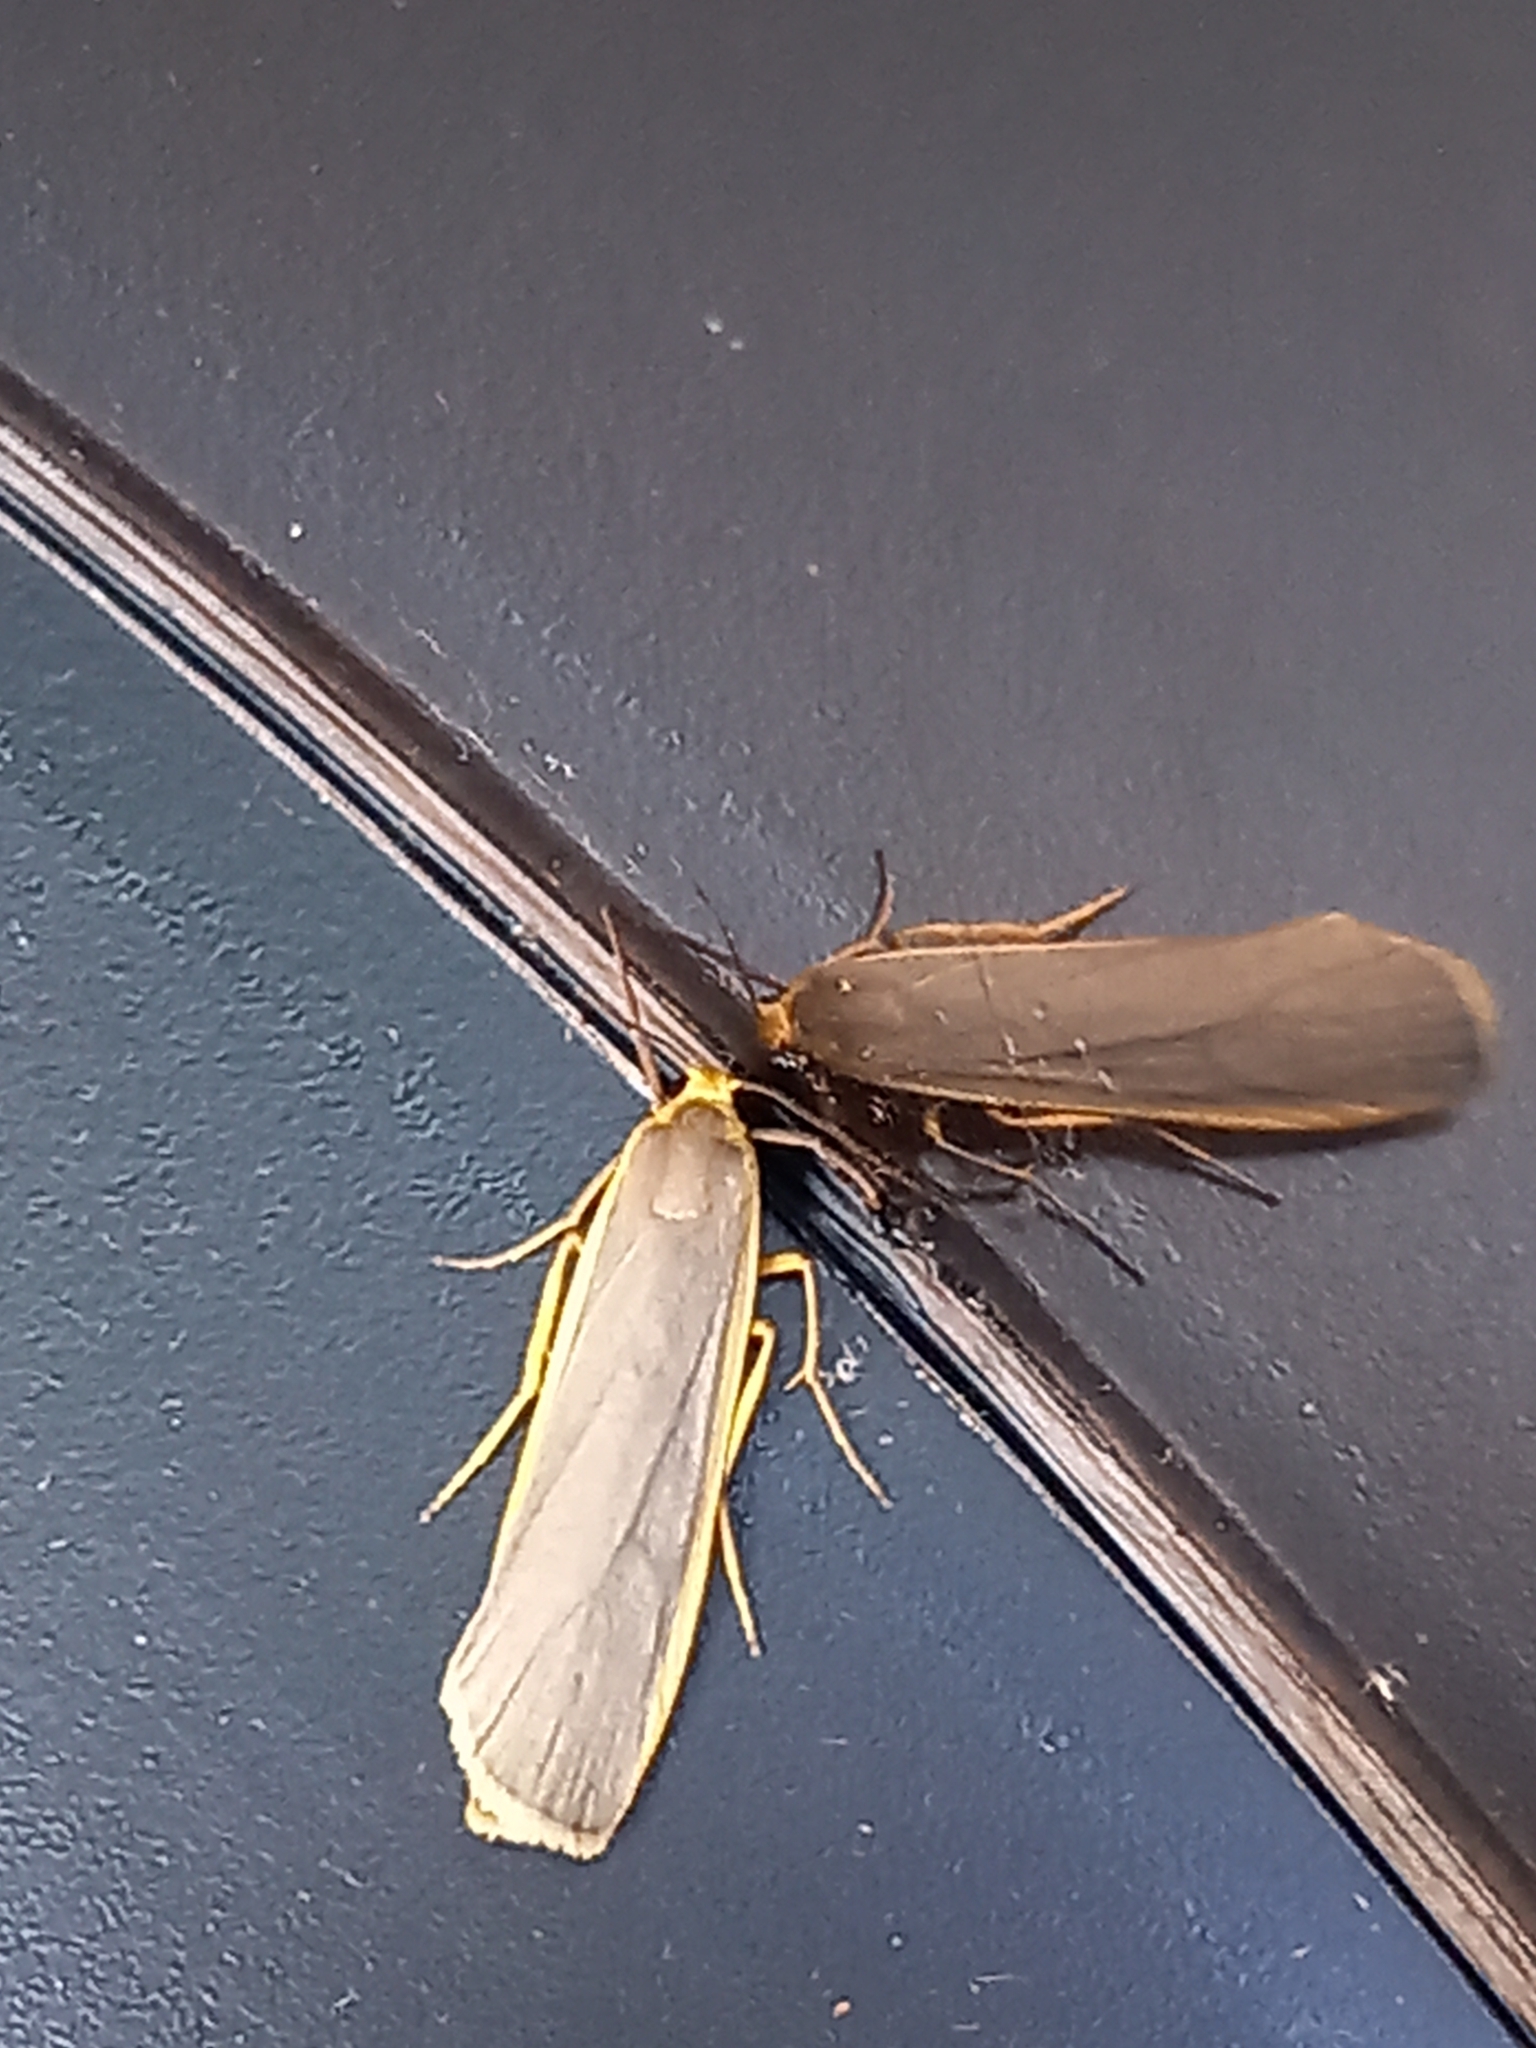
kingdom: Animalia
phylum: Arthropoda
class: Insecta
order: Lepidoptera
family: Erebidae
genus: Nyea
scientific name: Nyea lurideola
